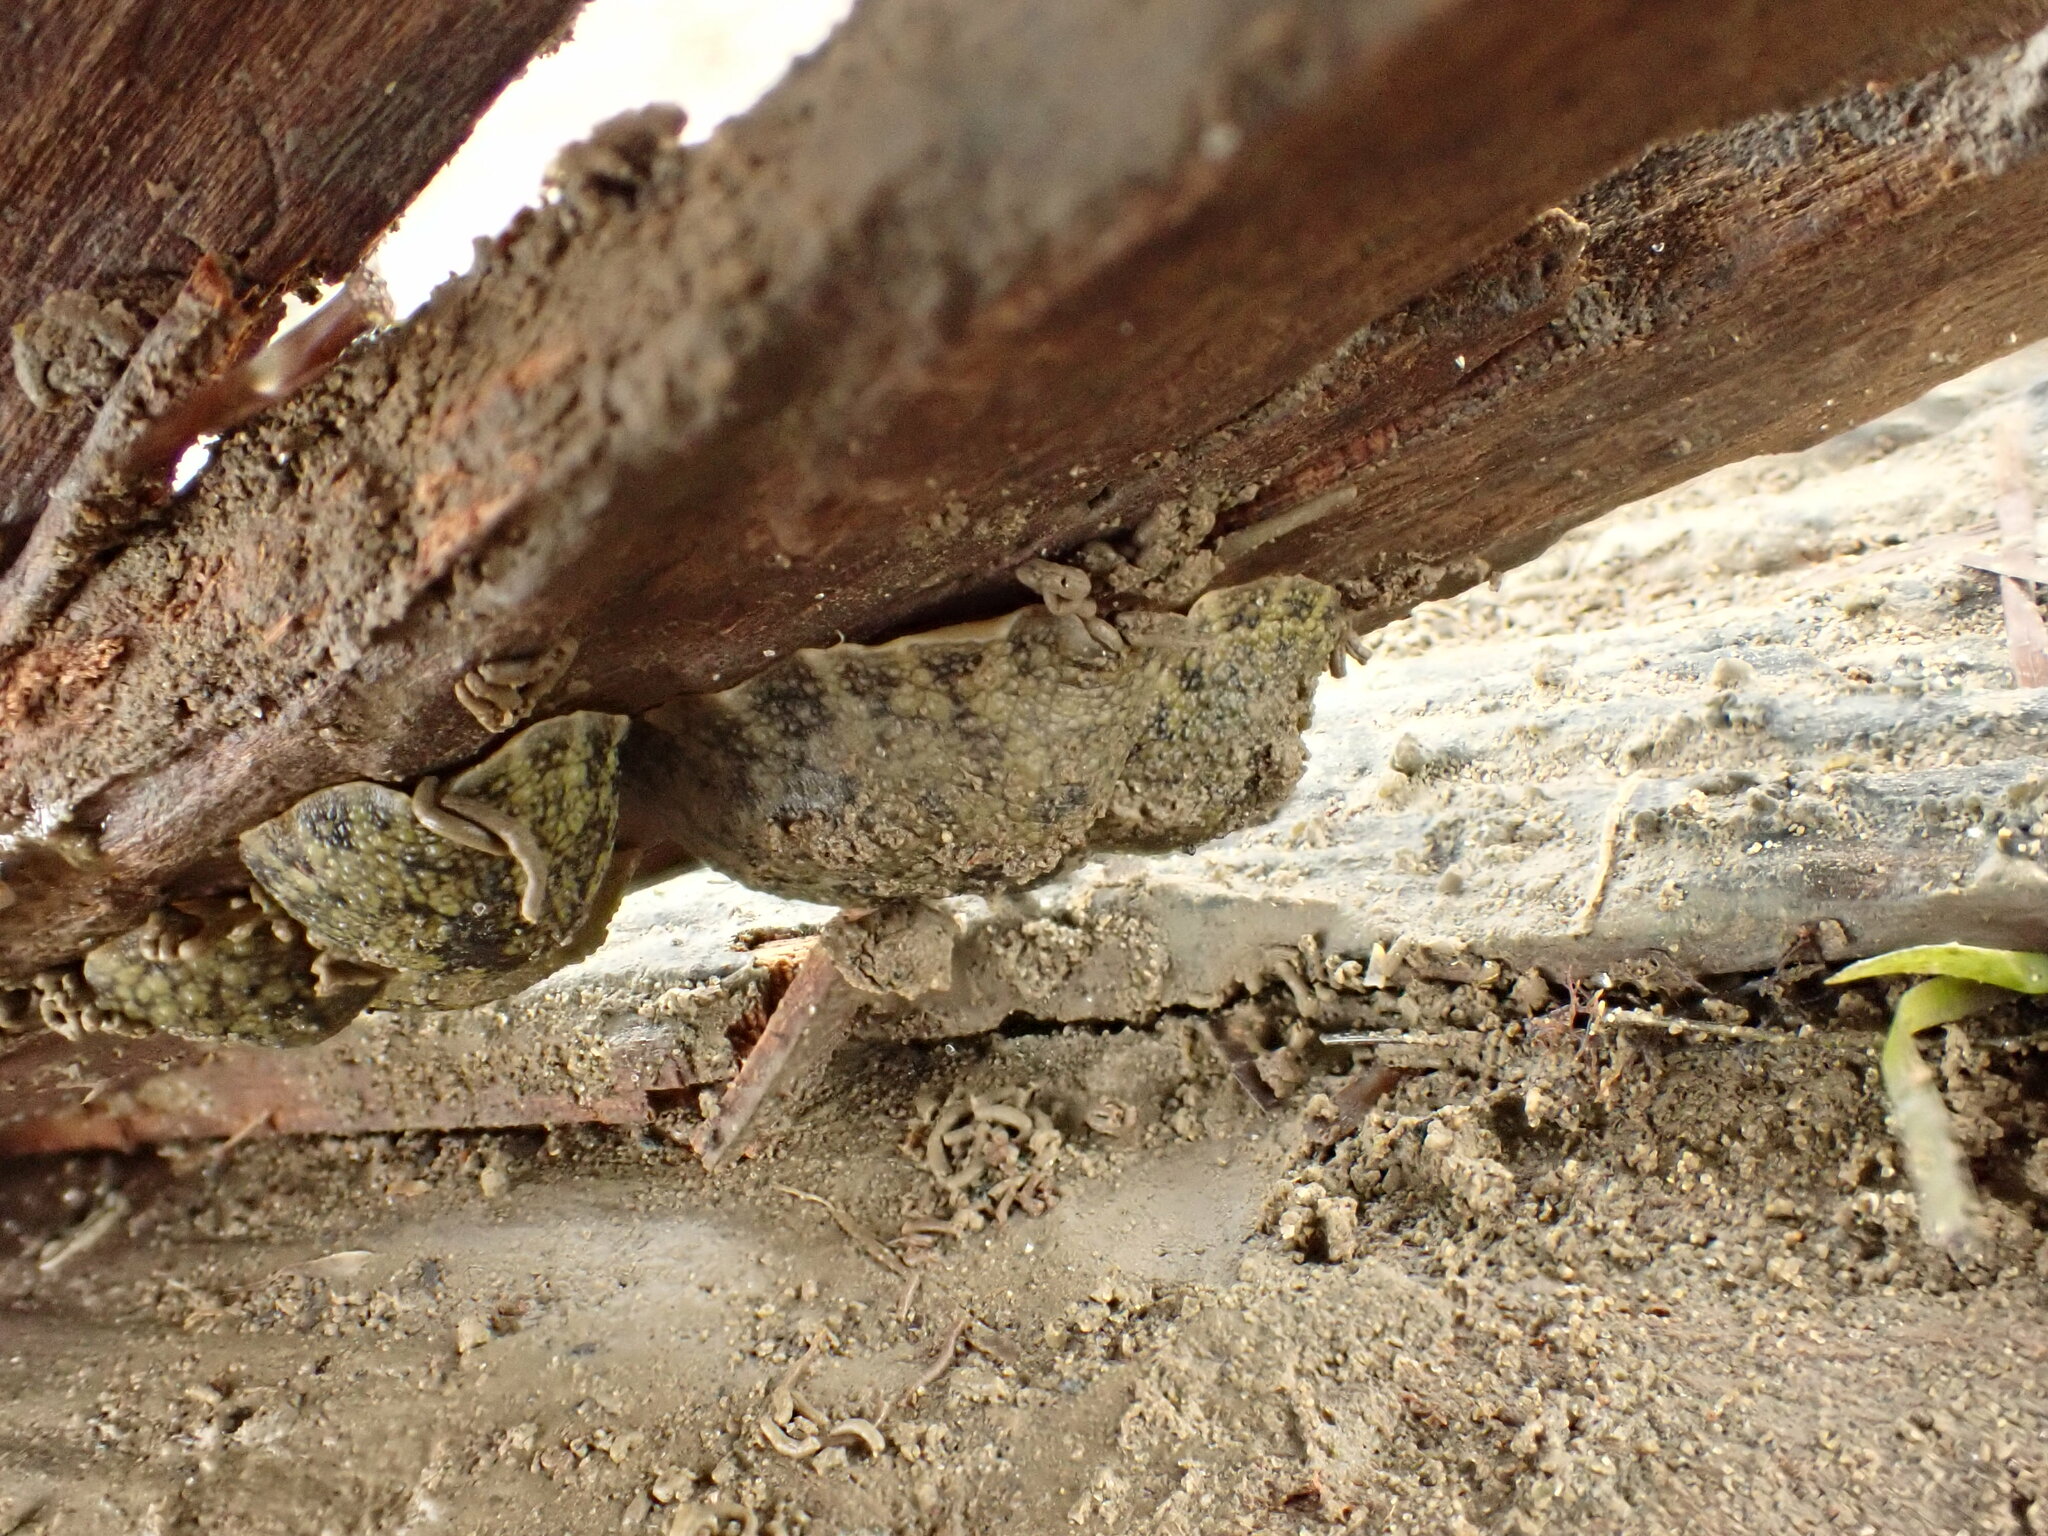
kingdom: Animalia
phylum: Mollusca
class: Gastropoda
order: Systellommatophora
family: Onchidiidae
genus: Onchidella
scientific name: Onchidella nigricans
